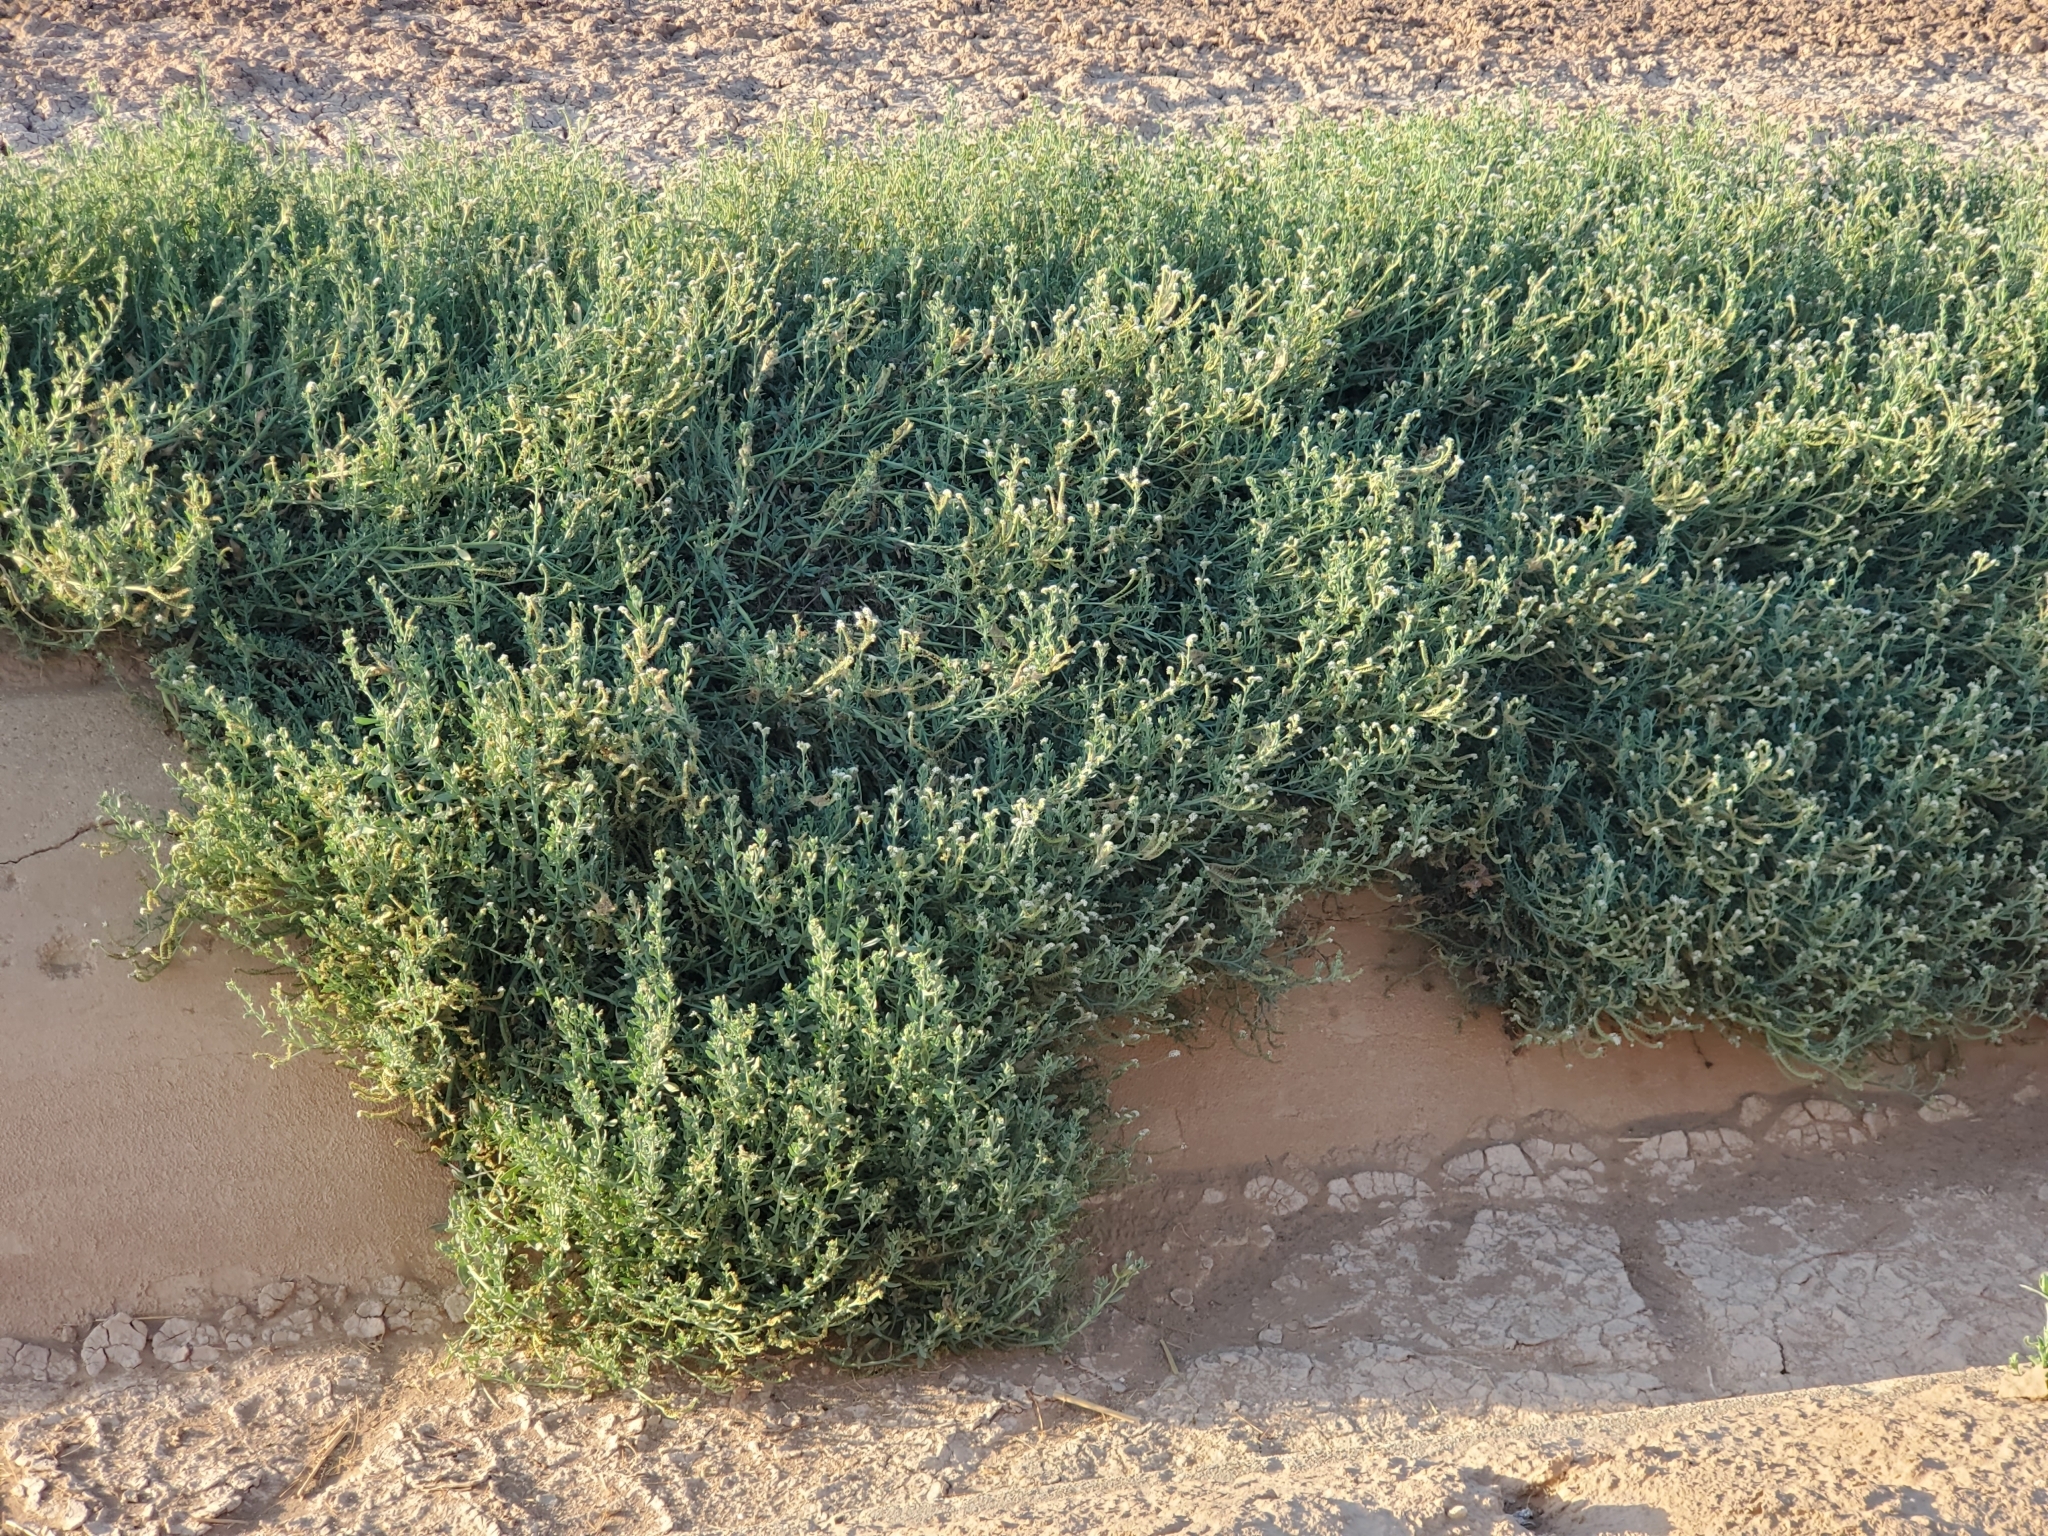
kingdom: Plantae
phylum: Tracheophyta
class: Magnoliopsida
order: Boraginales
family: Heliotropiaceae
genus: Heliotropium
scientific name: Heliotropium curassavicum
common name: Seaside heliotrope
